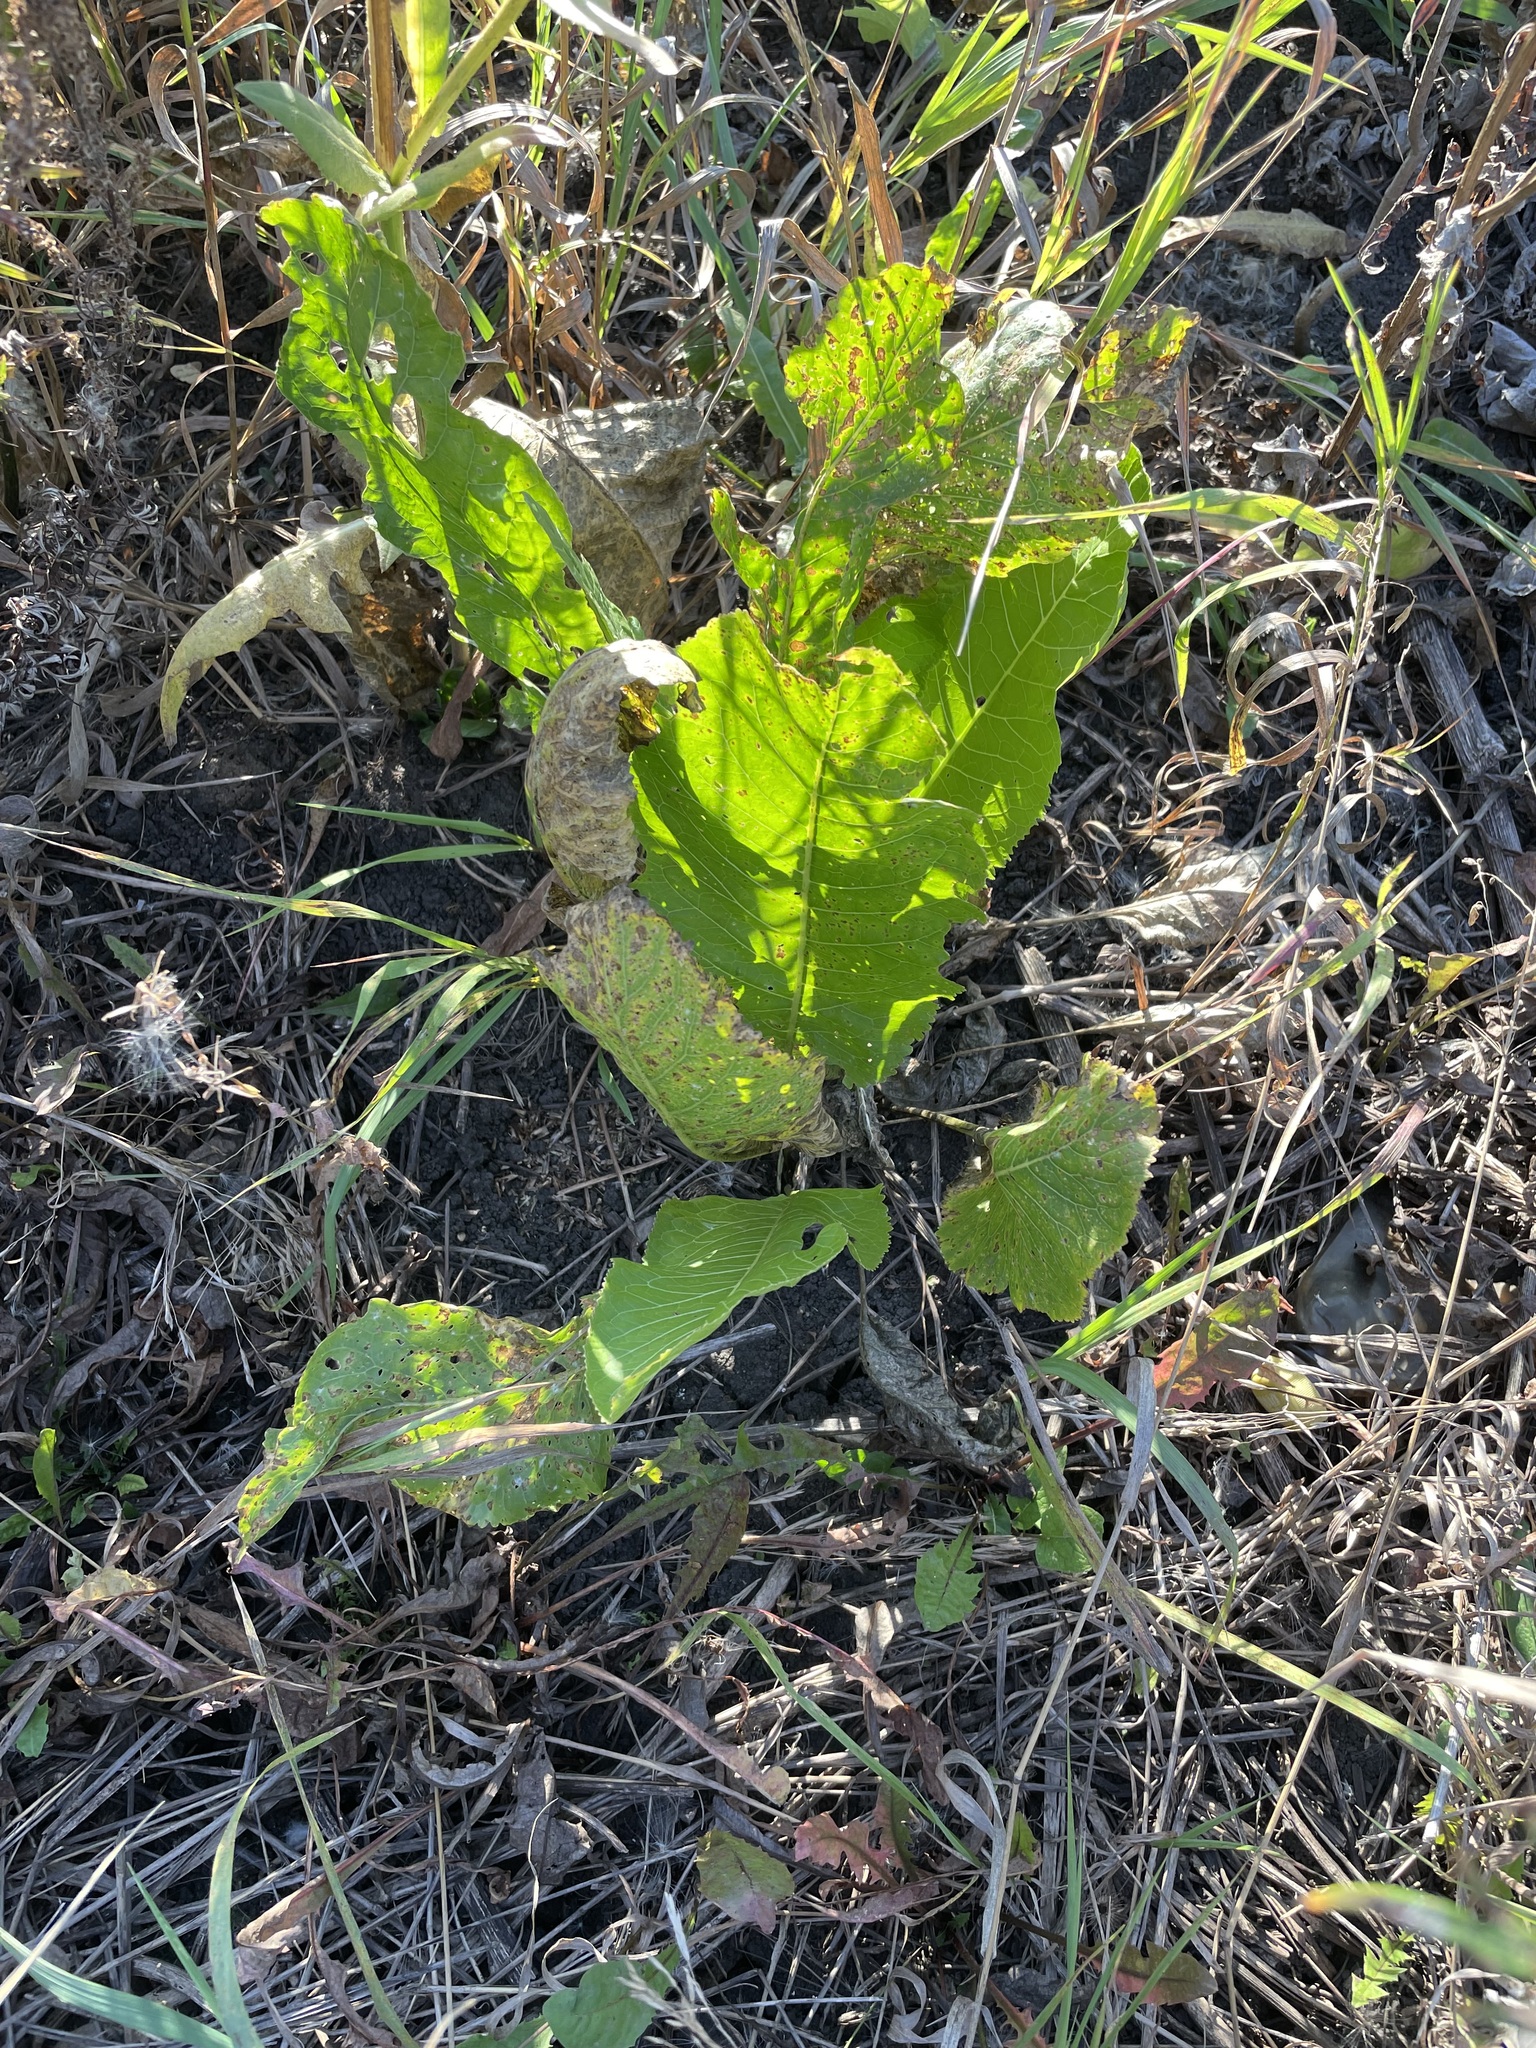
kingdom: Plantae
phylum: Tracheophyta
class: Magnoliopsida
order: Brassicales
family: Brassicaceae
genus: Armoracia
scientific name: Armoracia rusticana
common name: Horseradish
